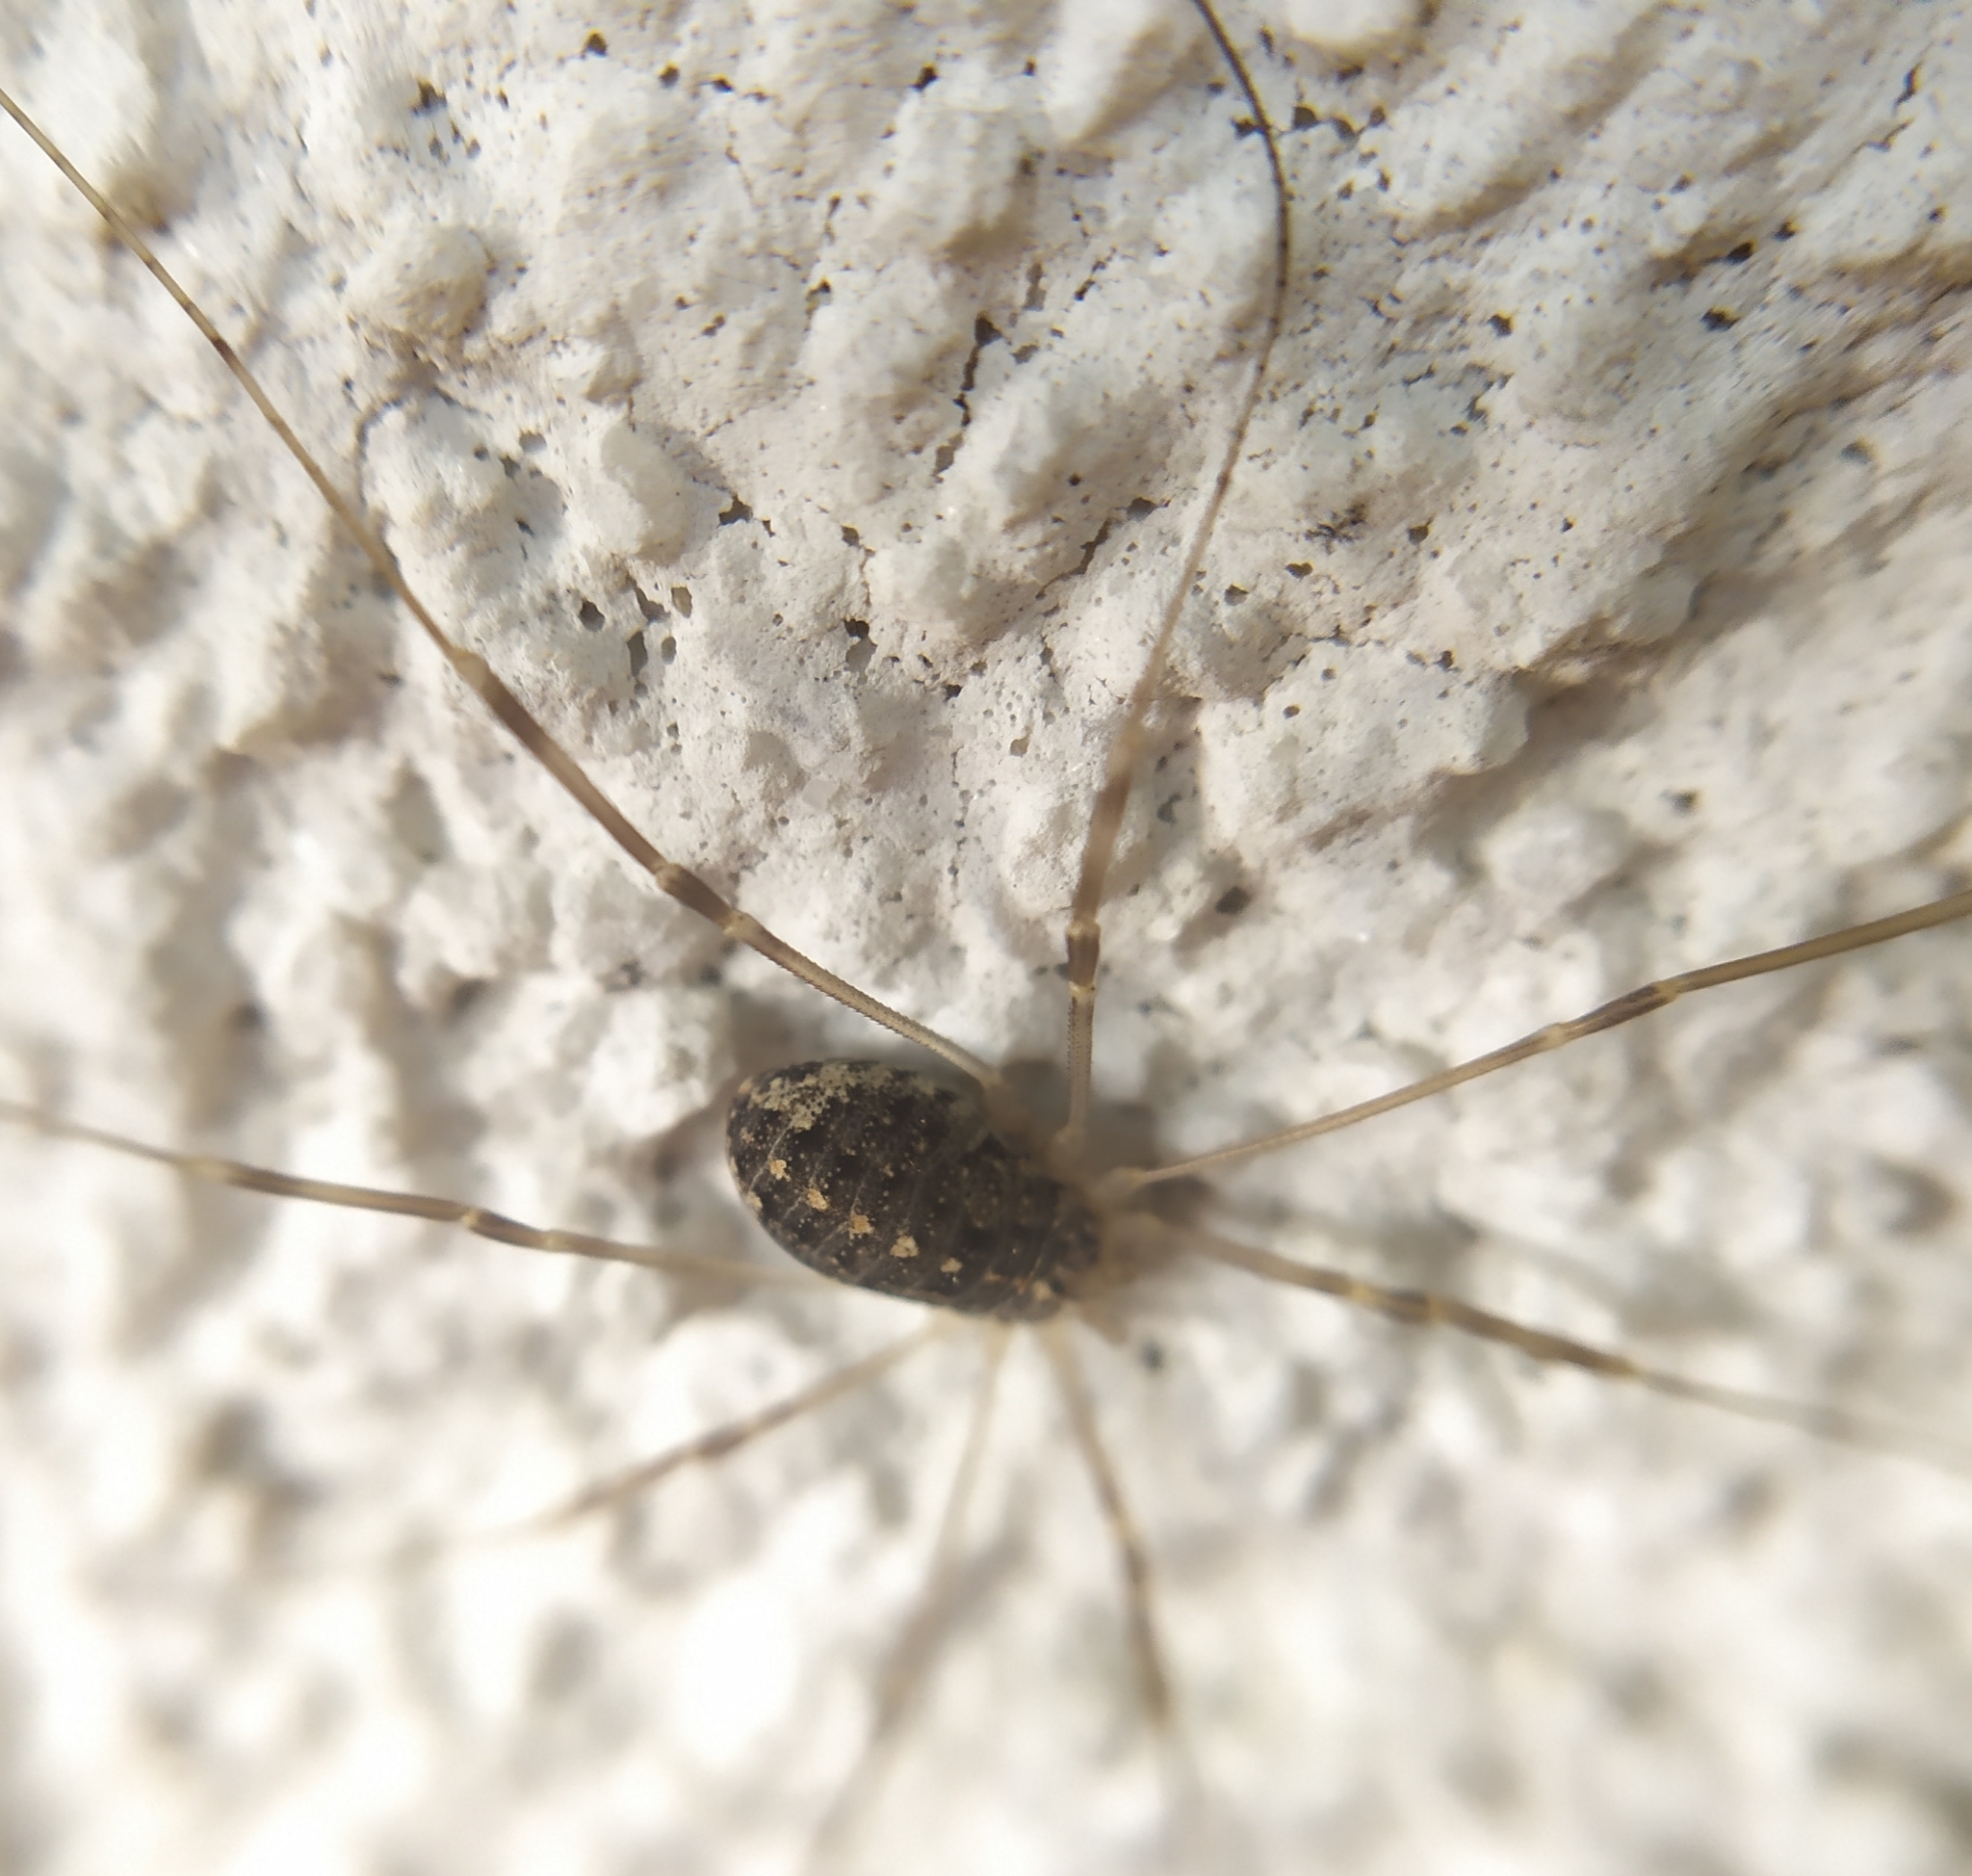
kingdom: Animalia
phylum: Arthropoda
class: Arachnida
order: Opiliones
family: Phalangiidae
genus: Opilio
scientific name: Opilio saxatilis
